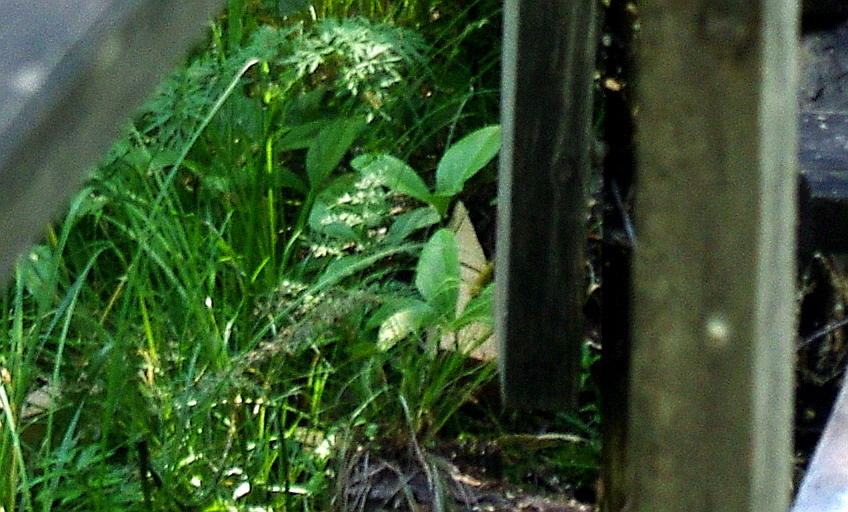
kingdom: Plantae
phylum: Tracheophyta
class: Magnoliopsida
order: Asterales
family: Menyanthaceae
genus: Menyanthes
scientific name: Menyanthes trifoliata
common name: Bogbean
